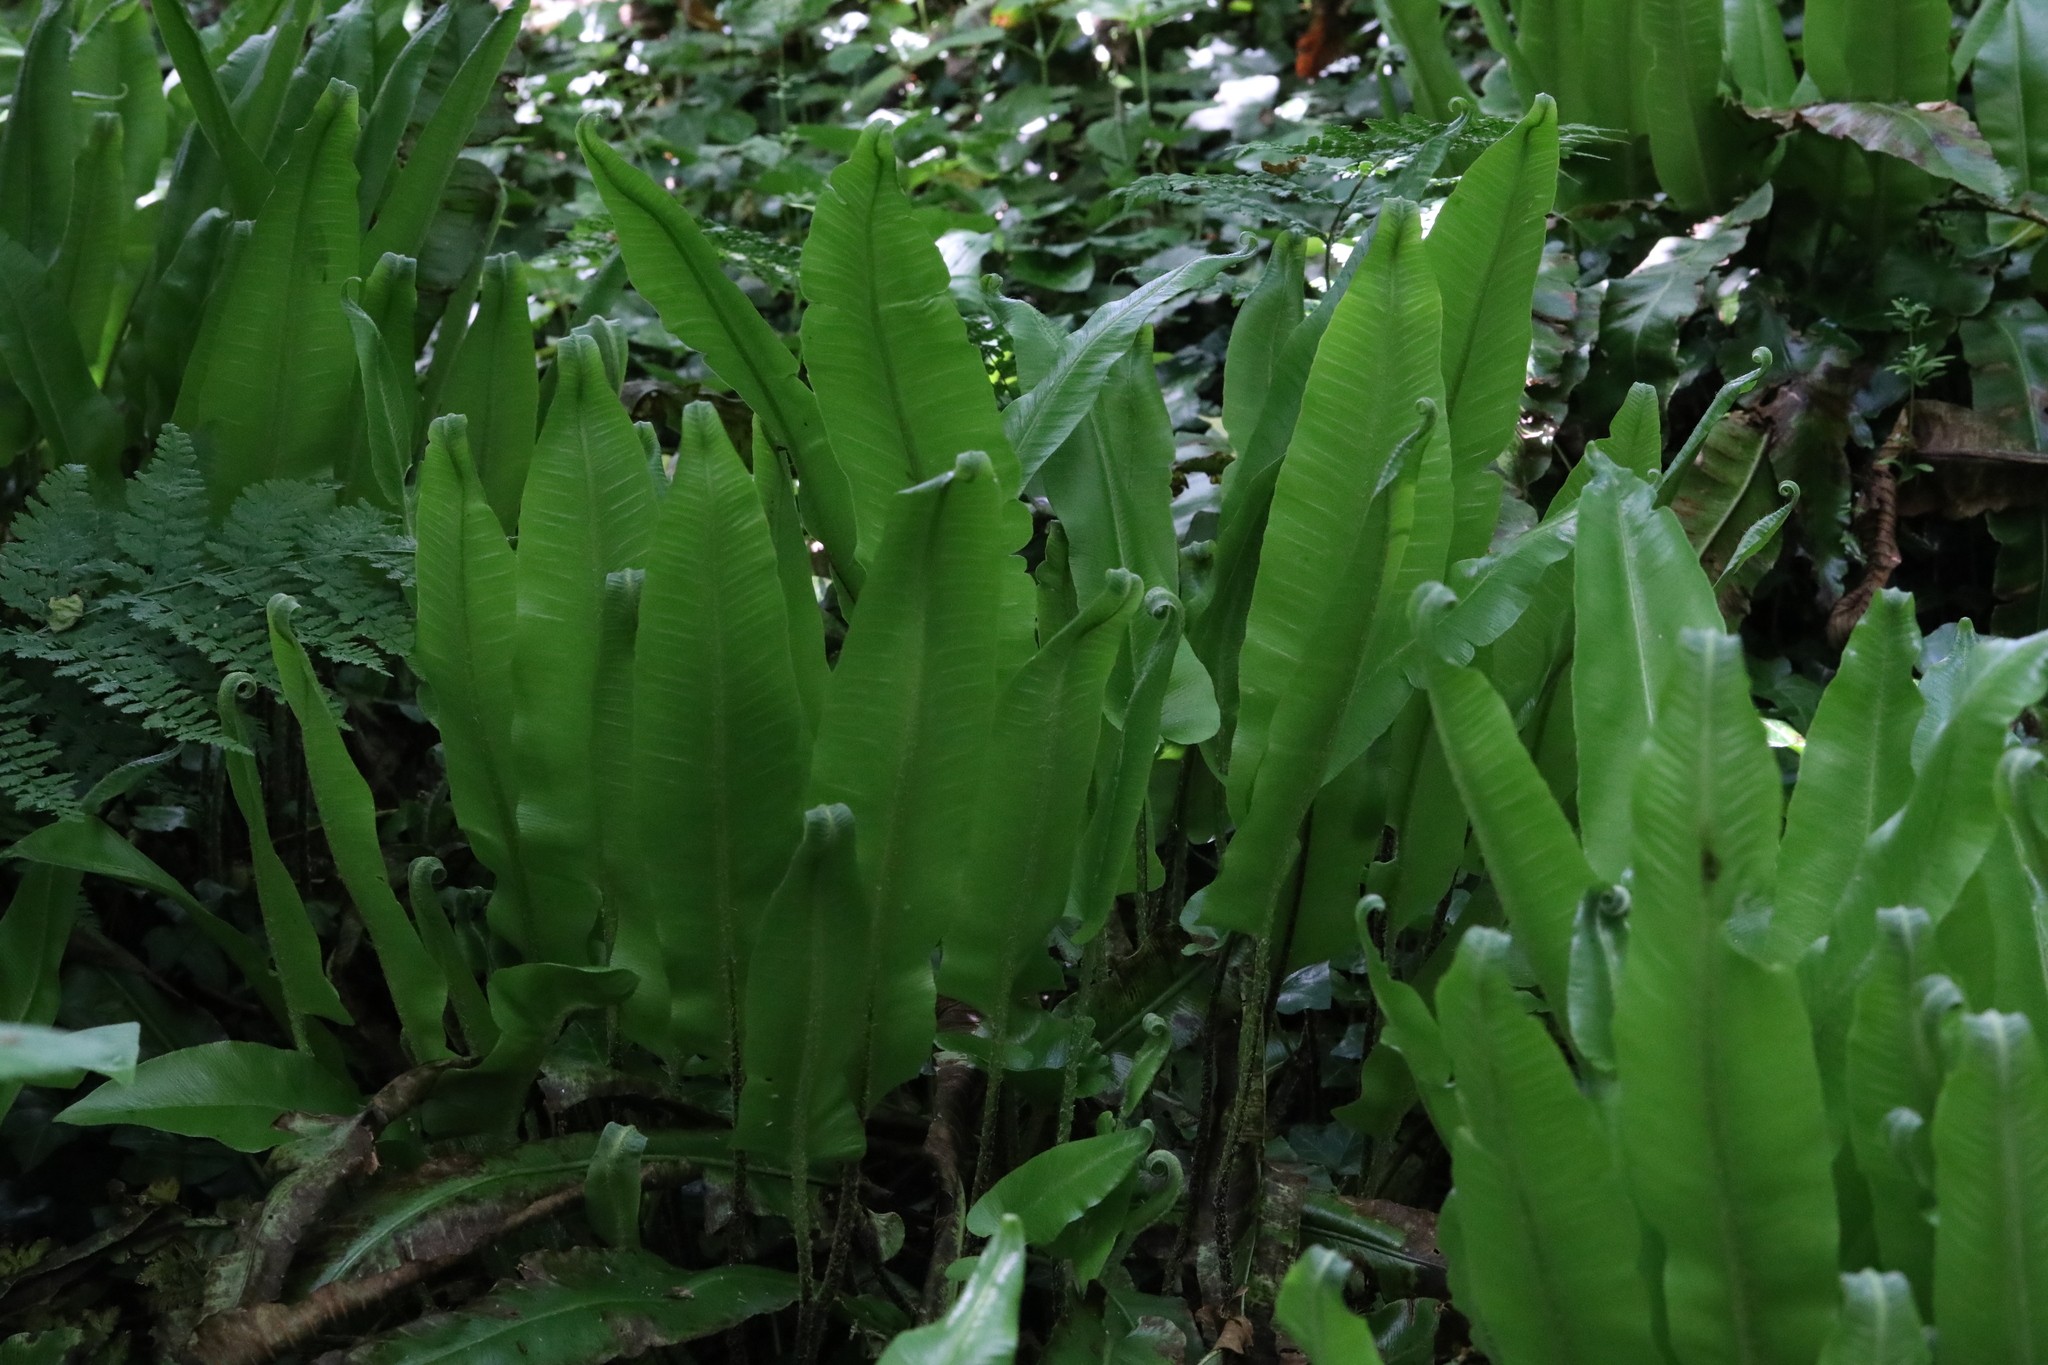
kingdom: Plantae
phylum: Tracheophyta
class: Polypodiopsida
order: Polypodiales
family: Aspleniaceae
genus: Asplenium
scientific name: Asplenium scolopendrium
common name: Hart's-tongue fern
